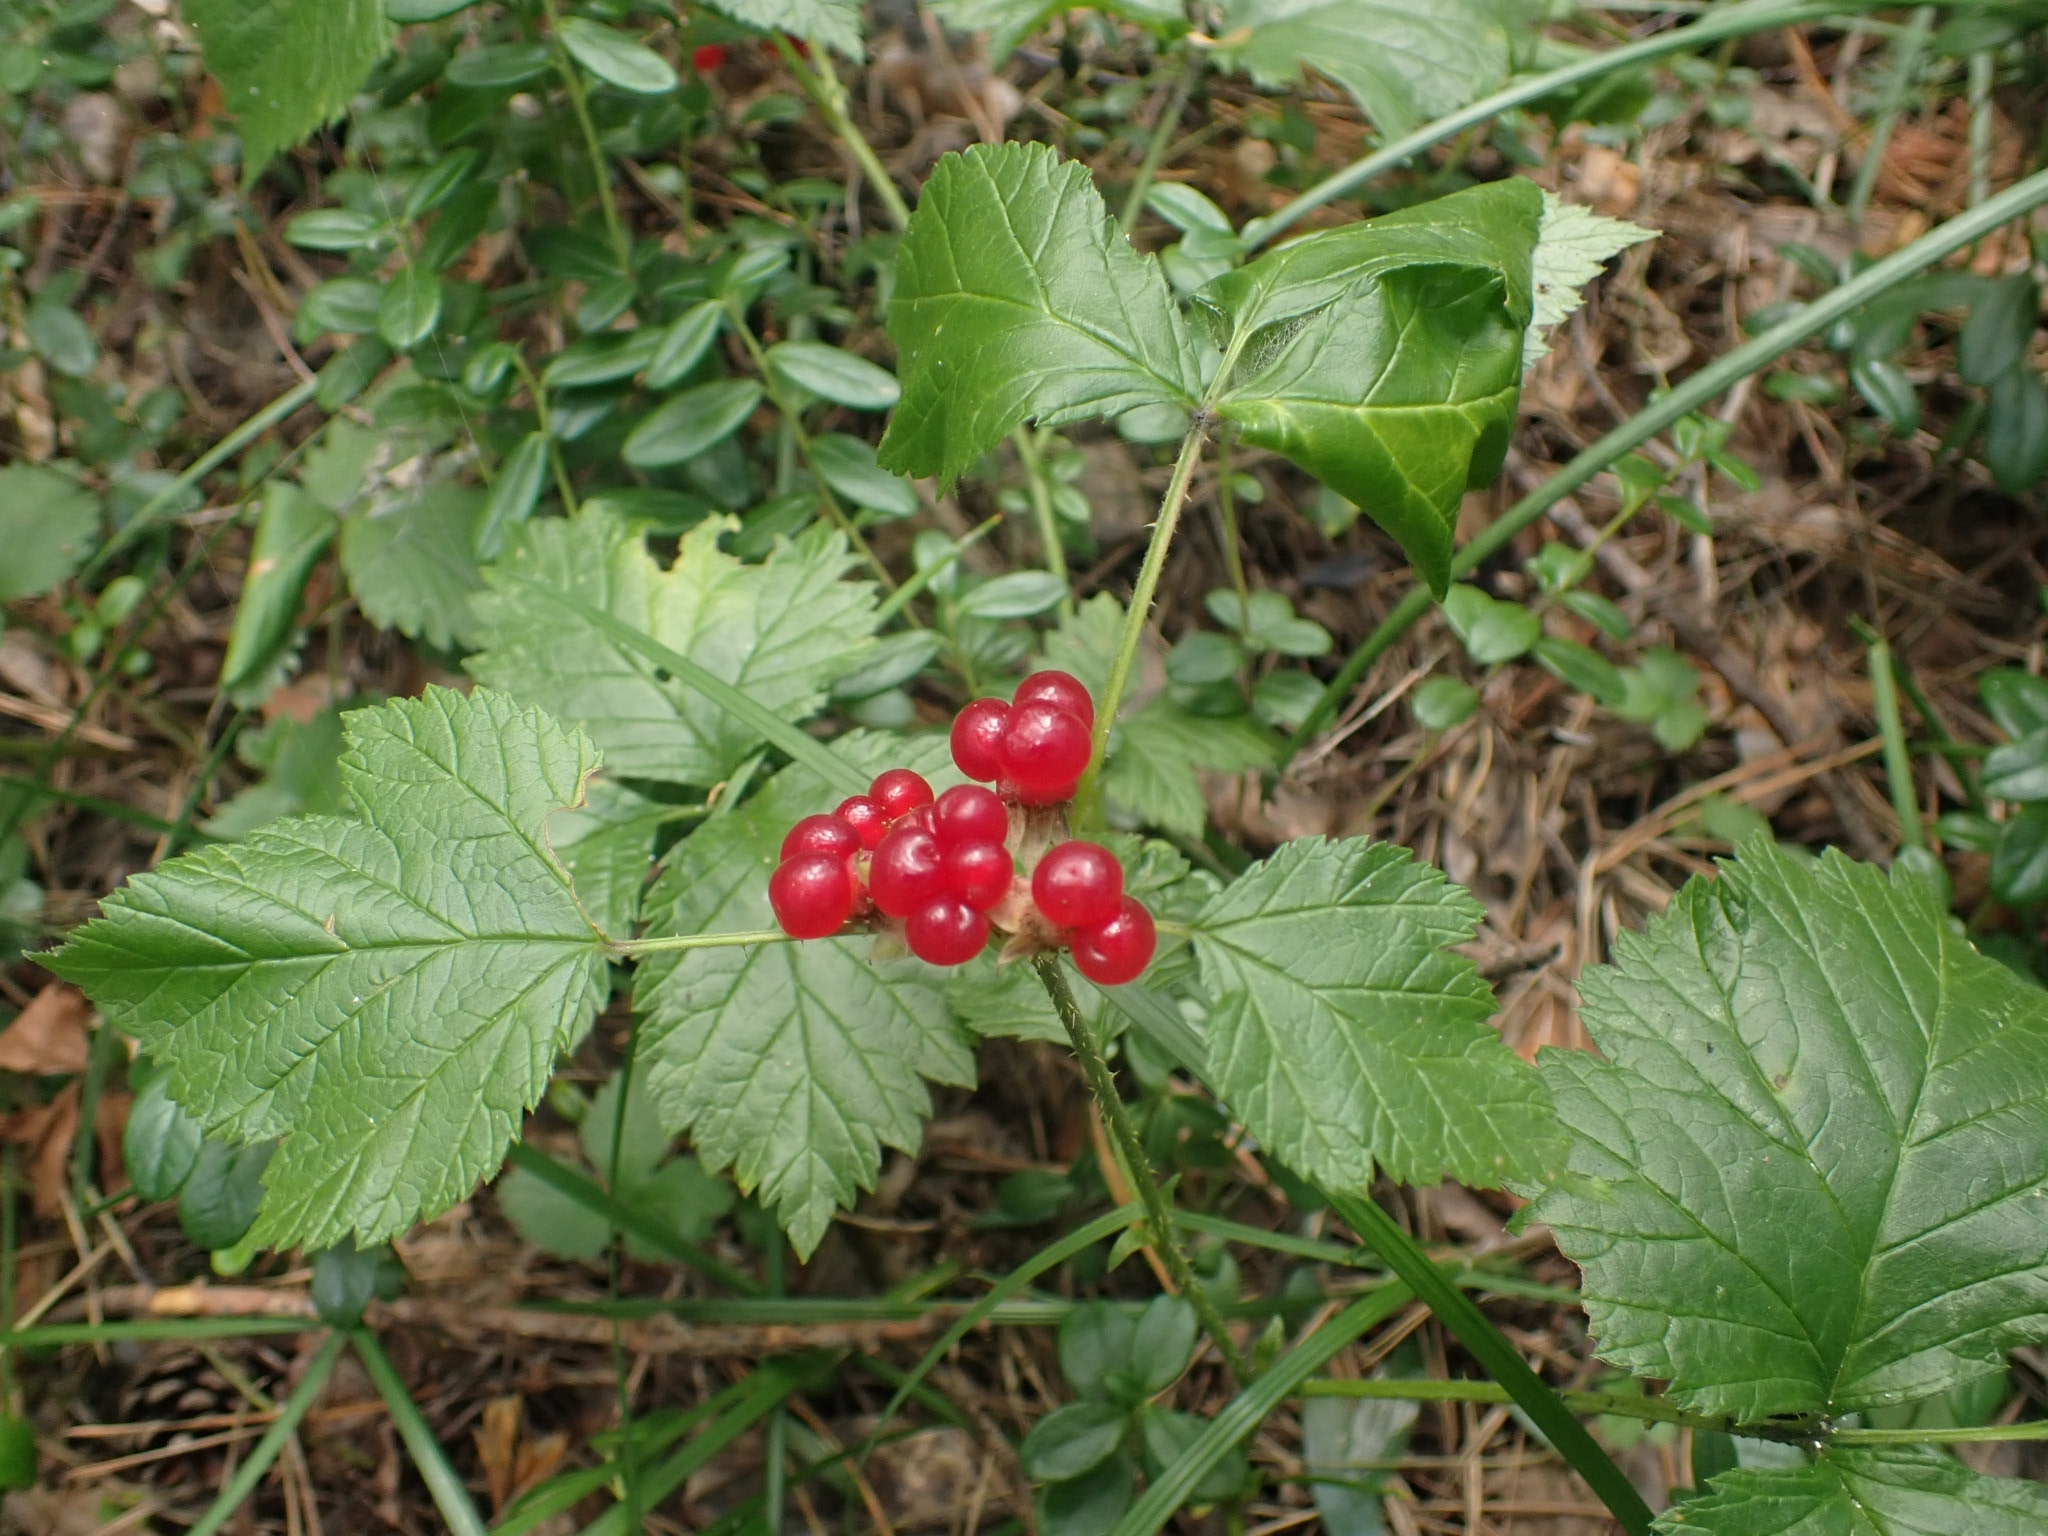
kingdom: Plantae
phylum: Tracheophyta
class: Magnoliopsida
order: Rosales
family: Rosaceae
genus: Rubus
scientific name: Rubus saxatilis
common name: Stone bramble
